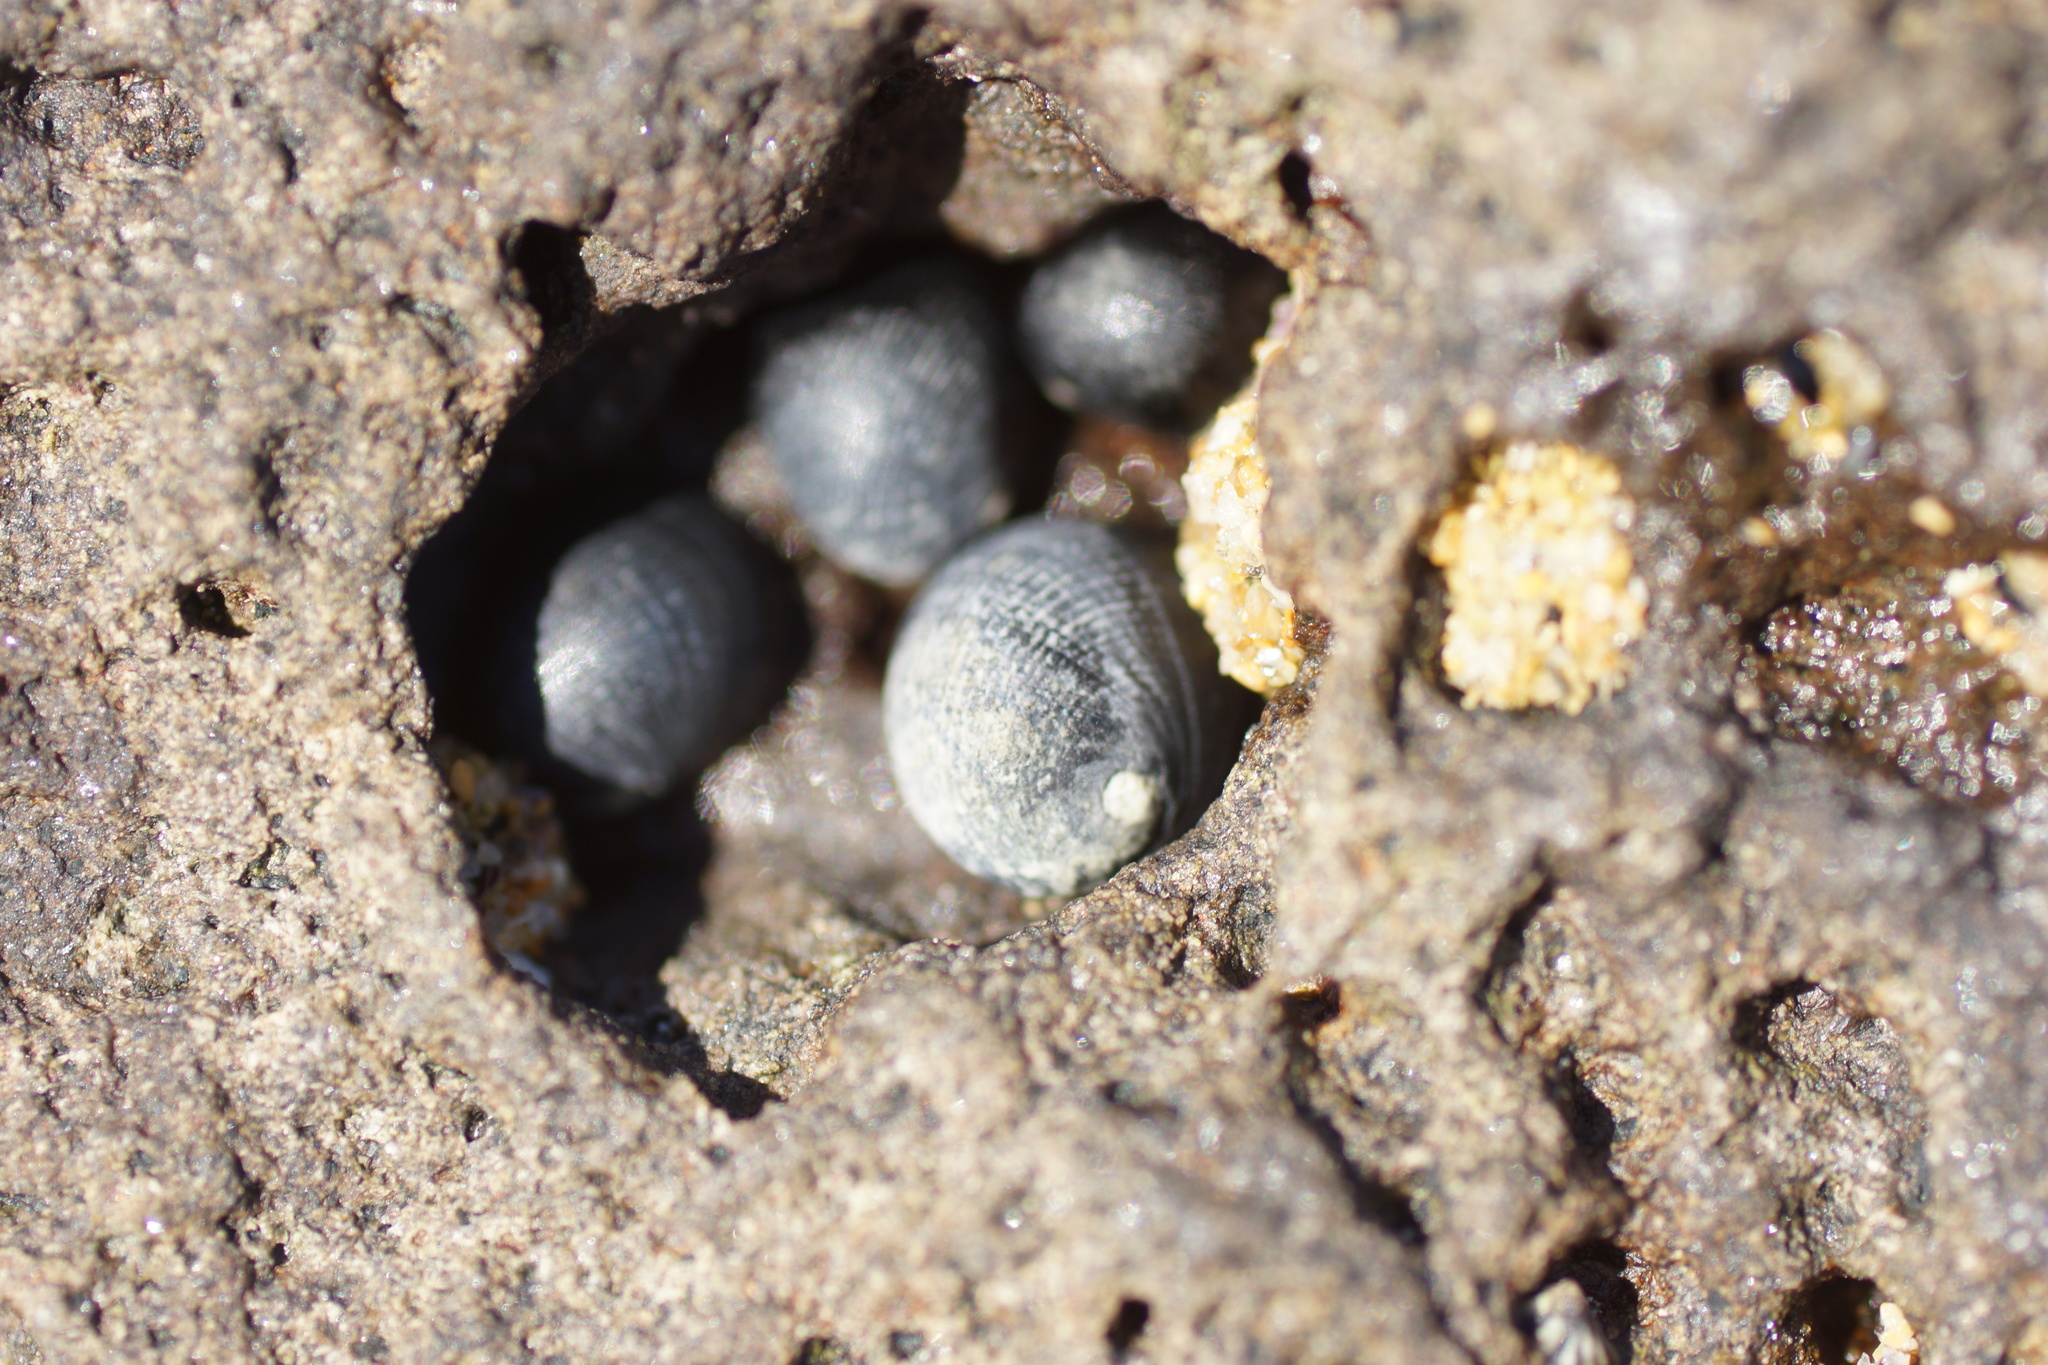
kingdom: Animalia
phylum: Mollusca
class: Gastropoda
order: Cycloneritida
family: Neritidae
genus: Nerita
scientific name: Nerita atramentosa
